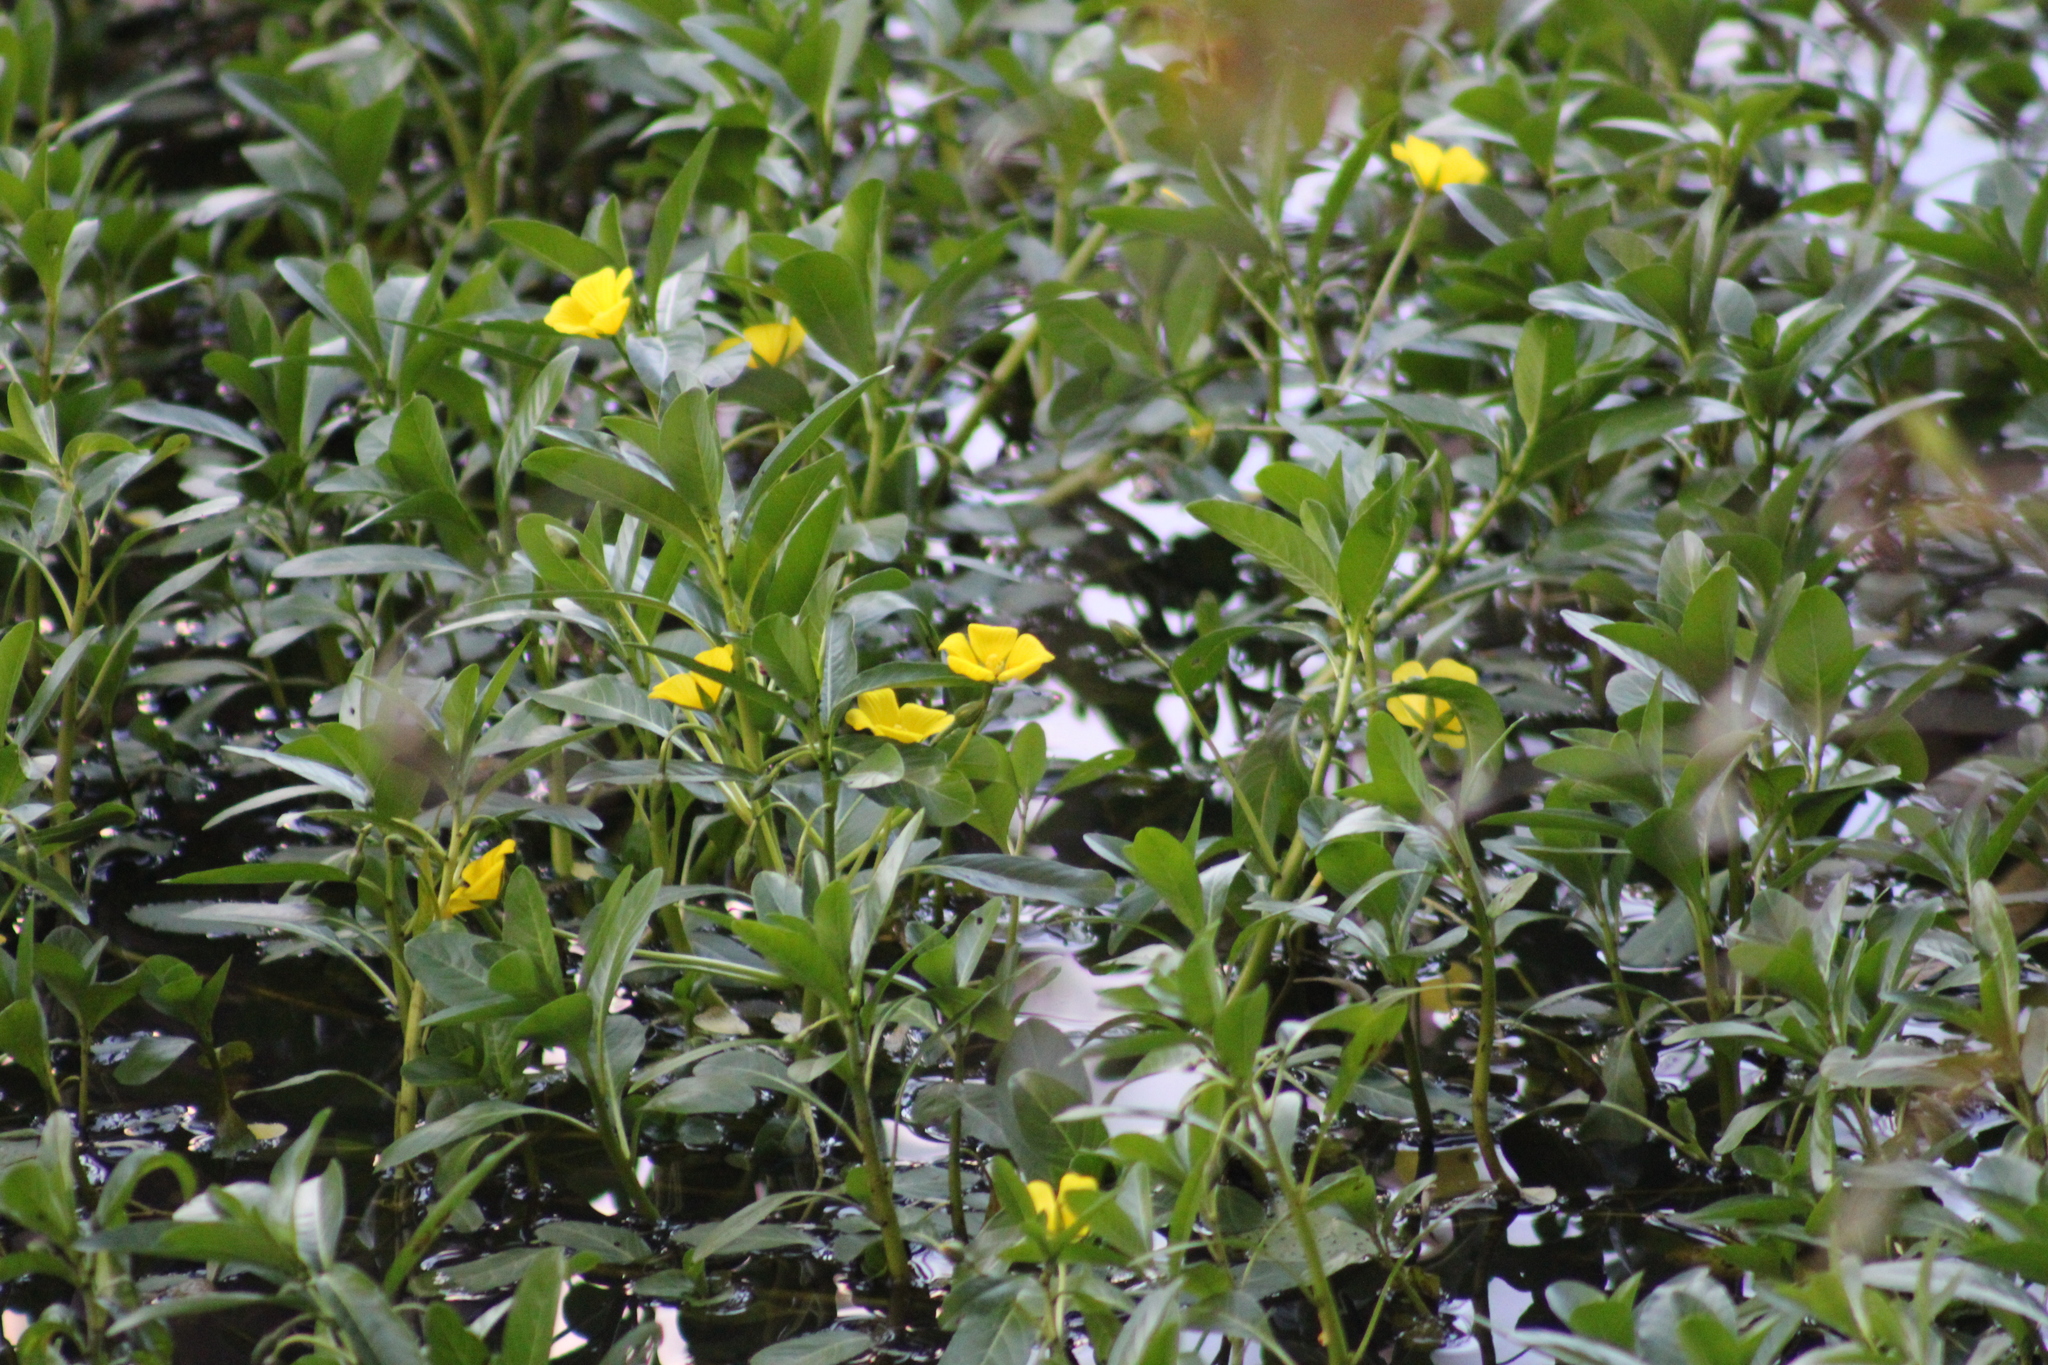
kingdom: Plantae
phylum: Tracheophyta
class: Magnoliopsida
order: Myrtales
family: Onagraceae
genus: Ludwigia
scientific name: Ludwigia peploides
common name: Floating primrose-willow
